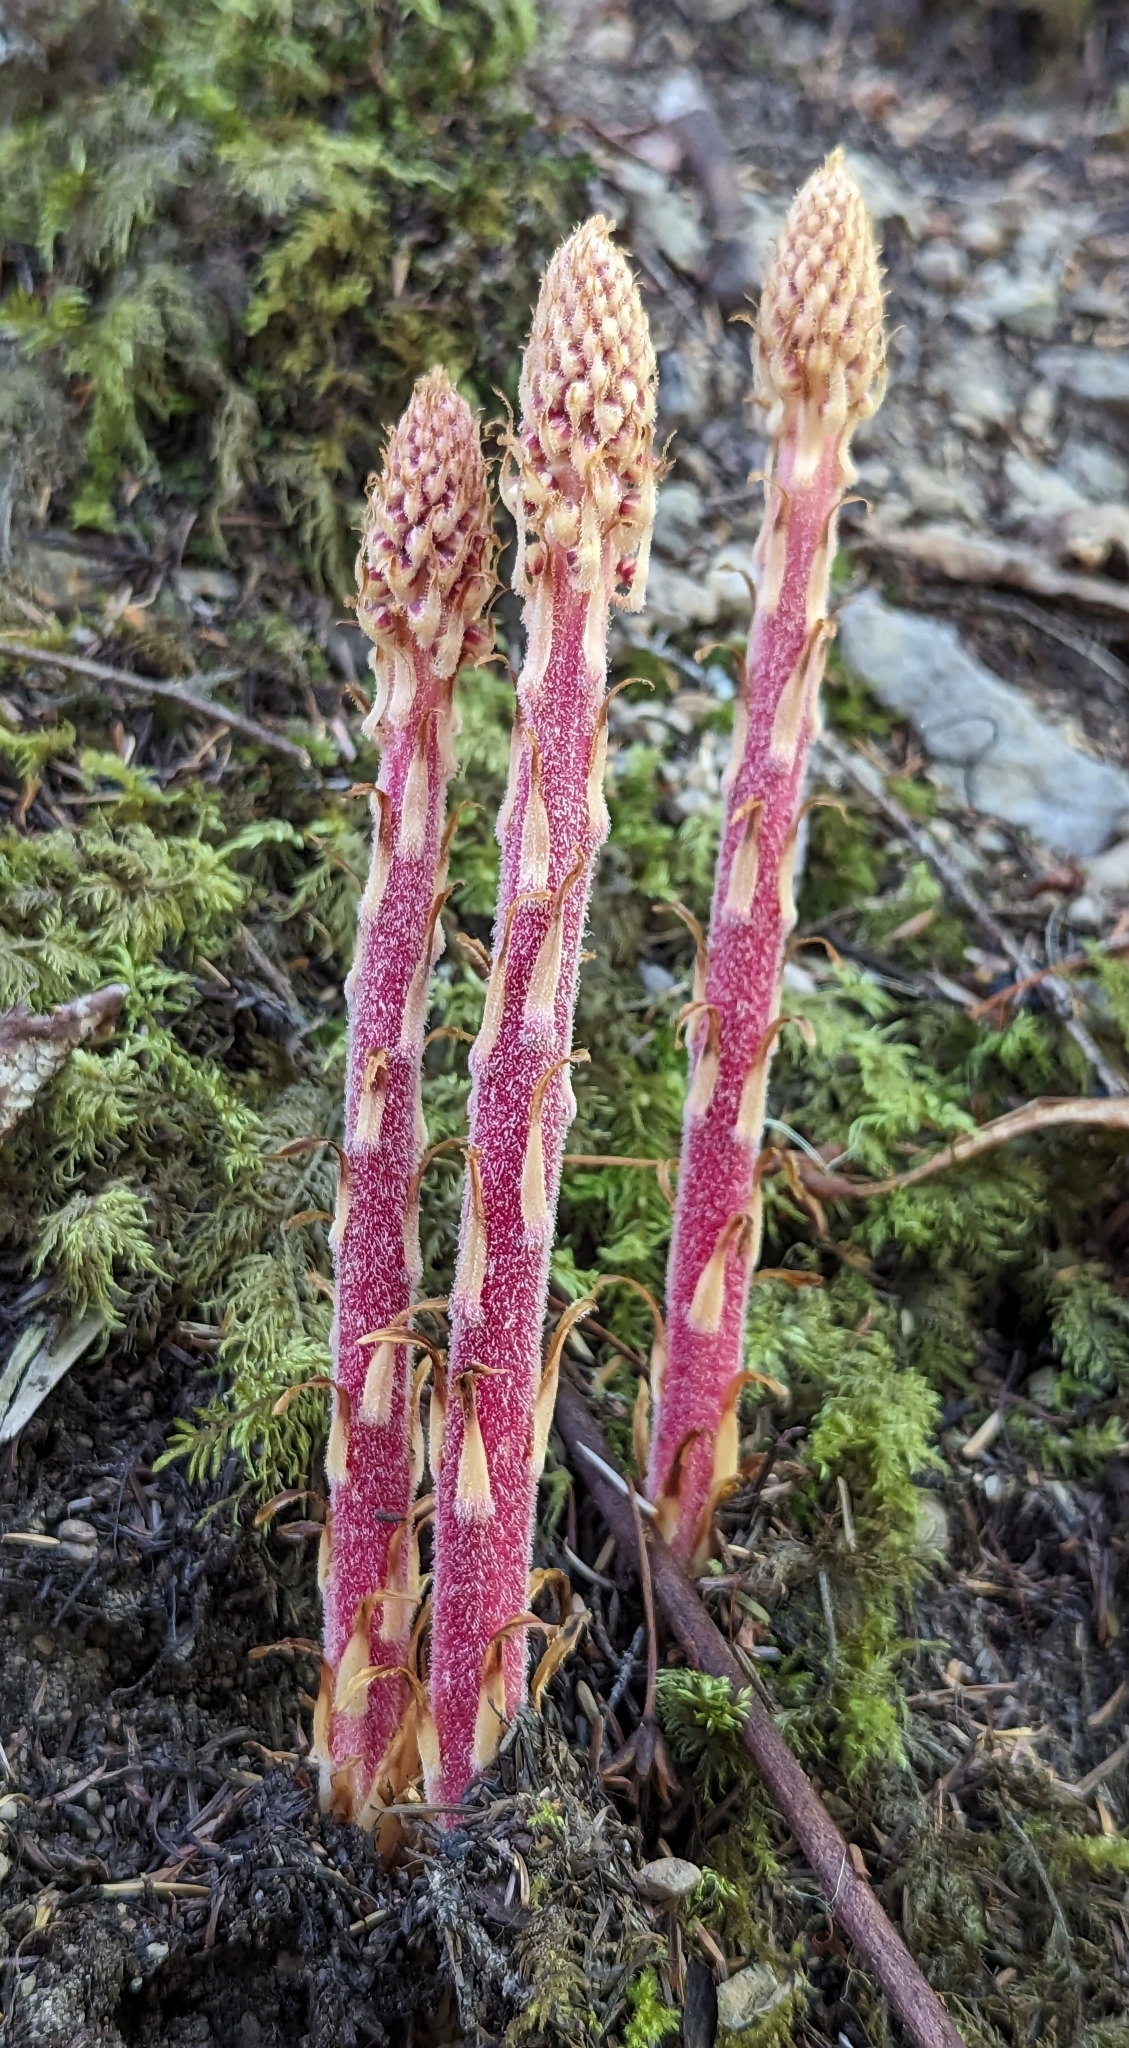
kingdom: Plantae
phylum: Tracheophyta
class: Magnoliopsida
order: Ericales
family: Ericaceae
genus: Pterospora
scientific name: Pterospora andromedea
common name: Giant bird's-nest
